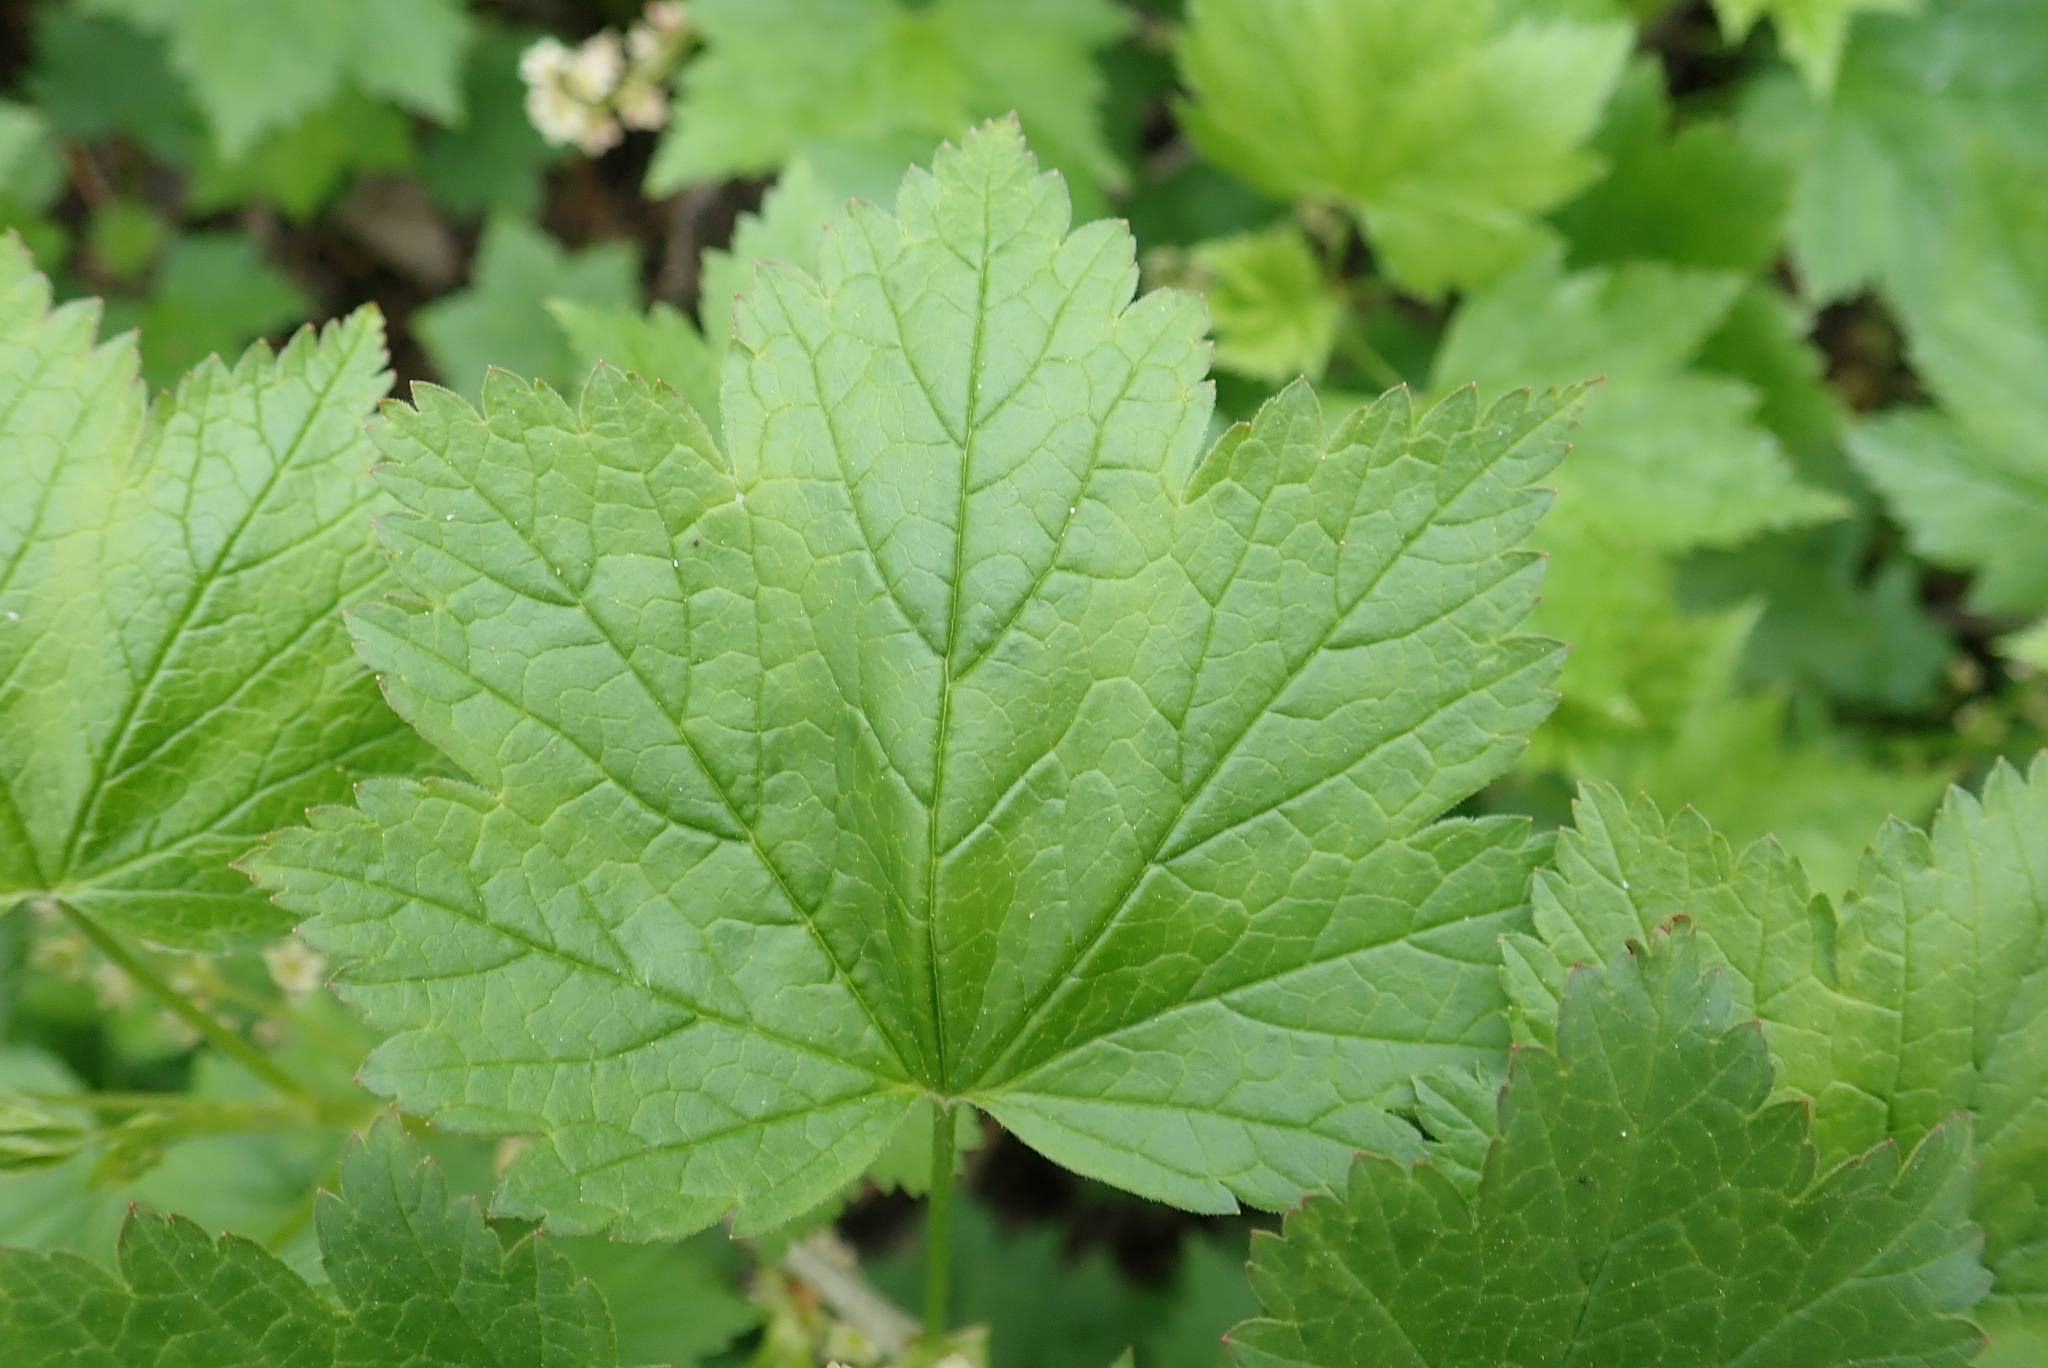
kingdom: Plantae
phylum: Tracheophyta
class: Magnoliopsida
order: Saxifragales
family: Grossulariaceae
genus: Ribes
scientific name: Ribes glandulosum
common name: Skunk currant
